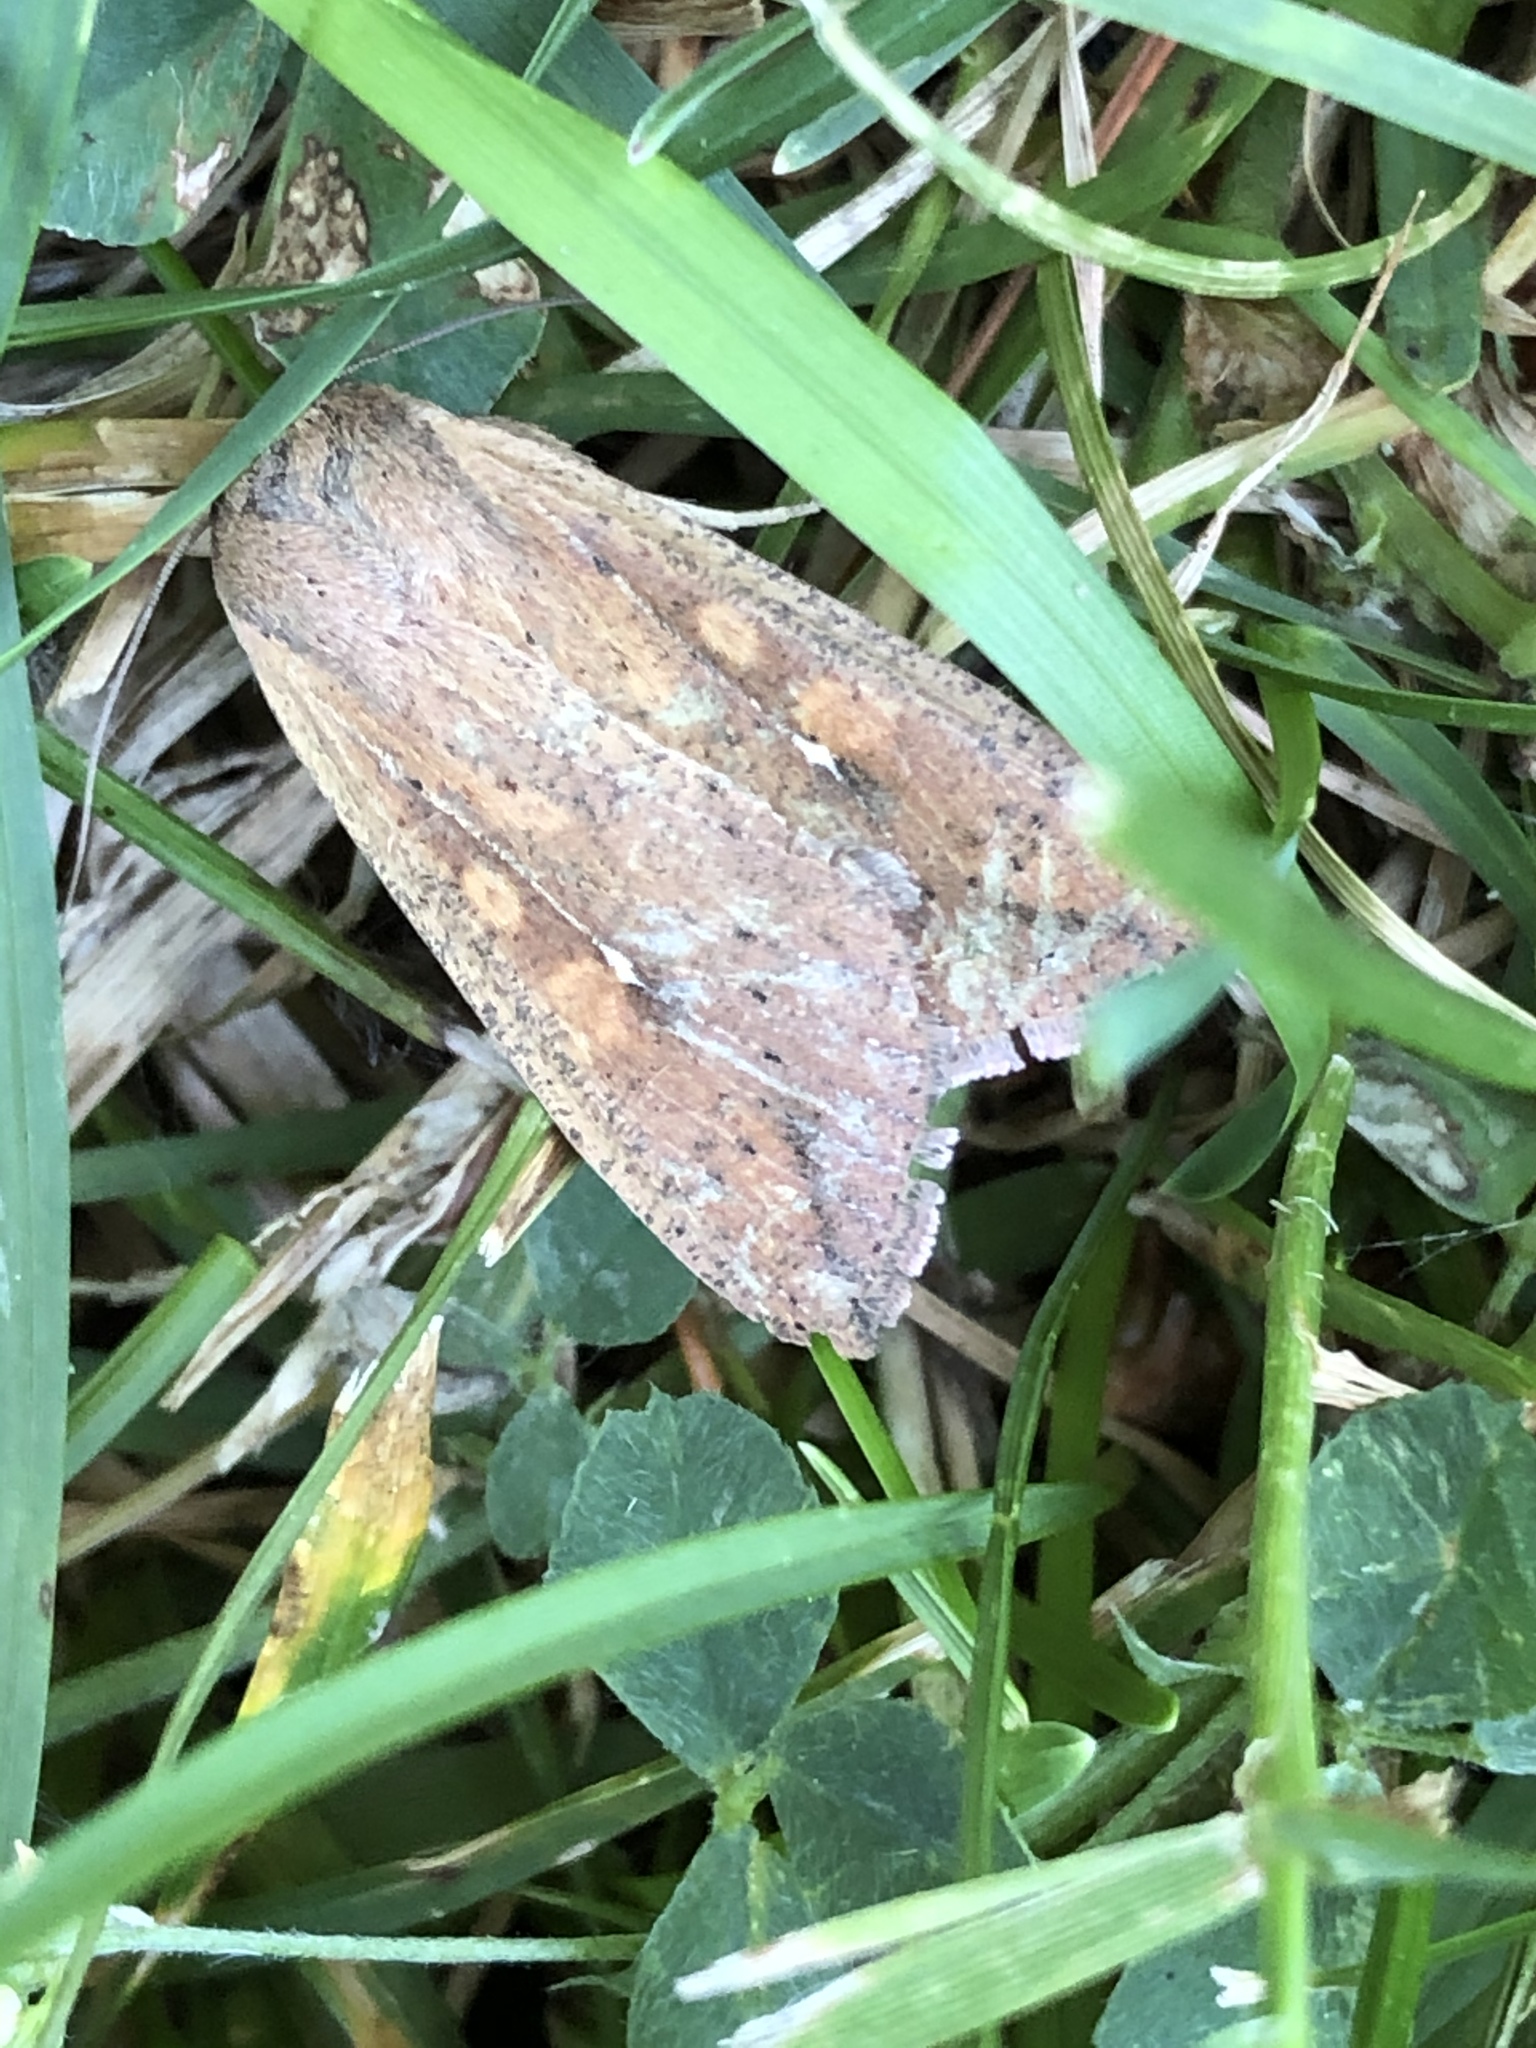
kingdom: Animalia
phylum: Arthropoda
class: Insecta
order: Lepidoptera
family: Noctuidae
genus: Mythimna
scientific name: Mythimna unipuncta
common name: White-speck
